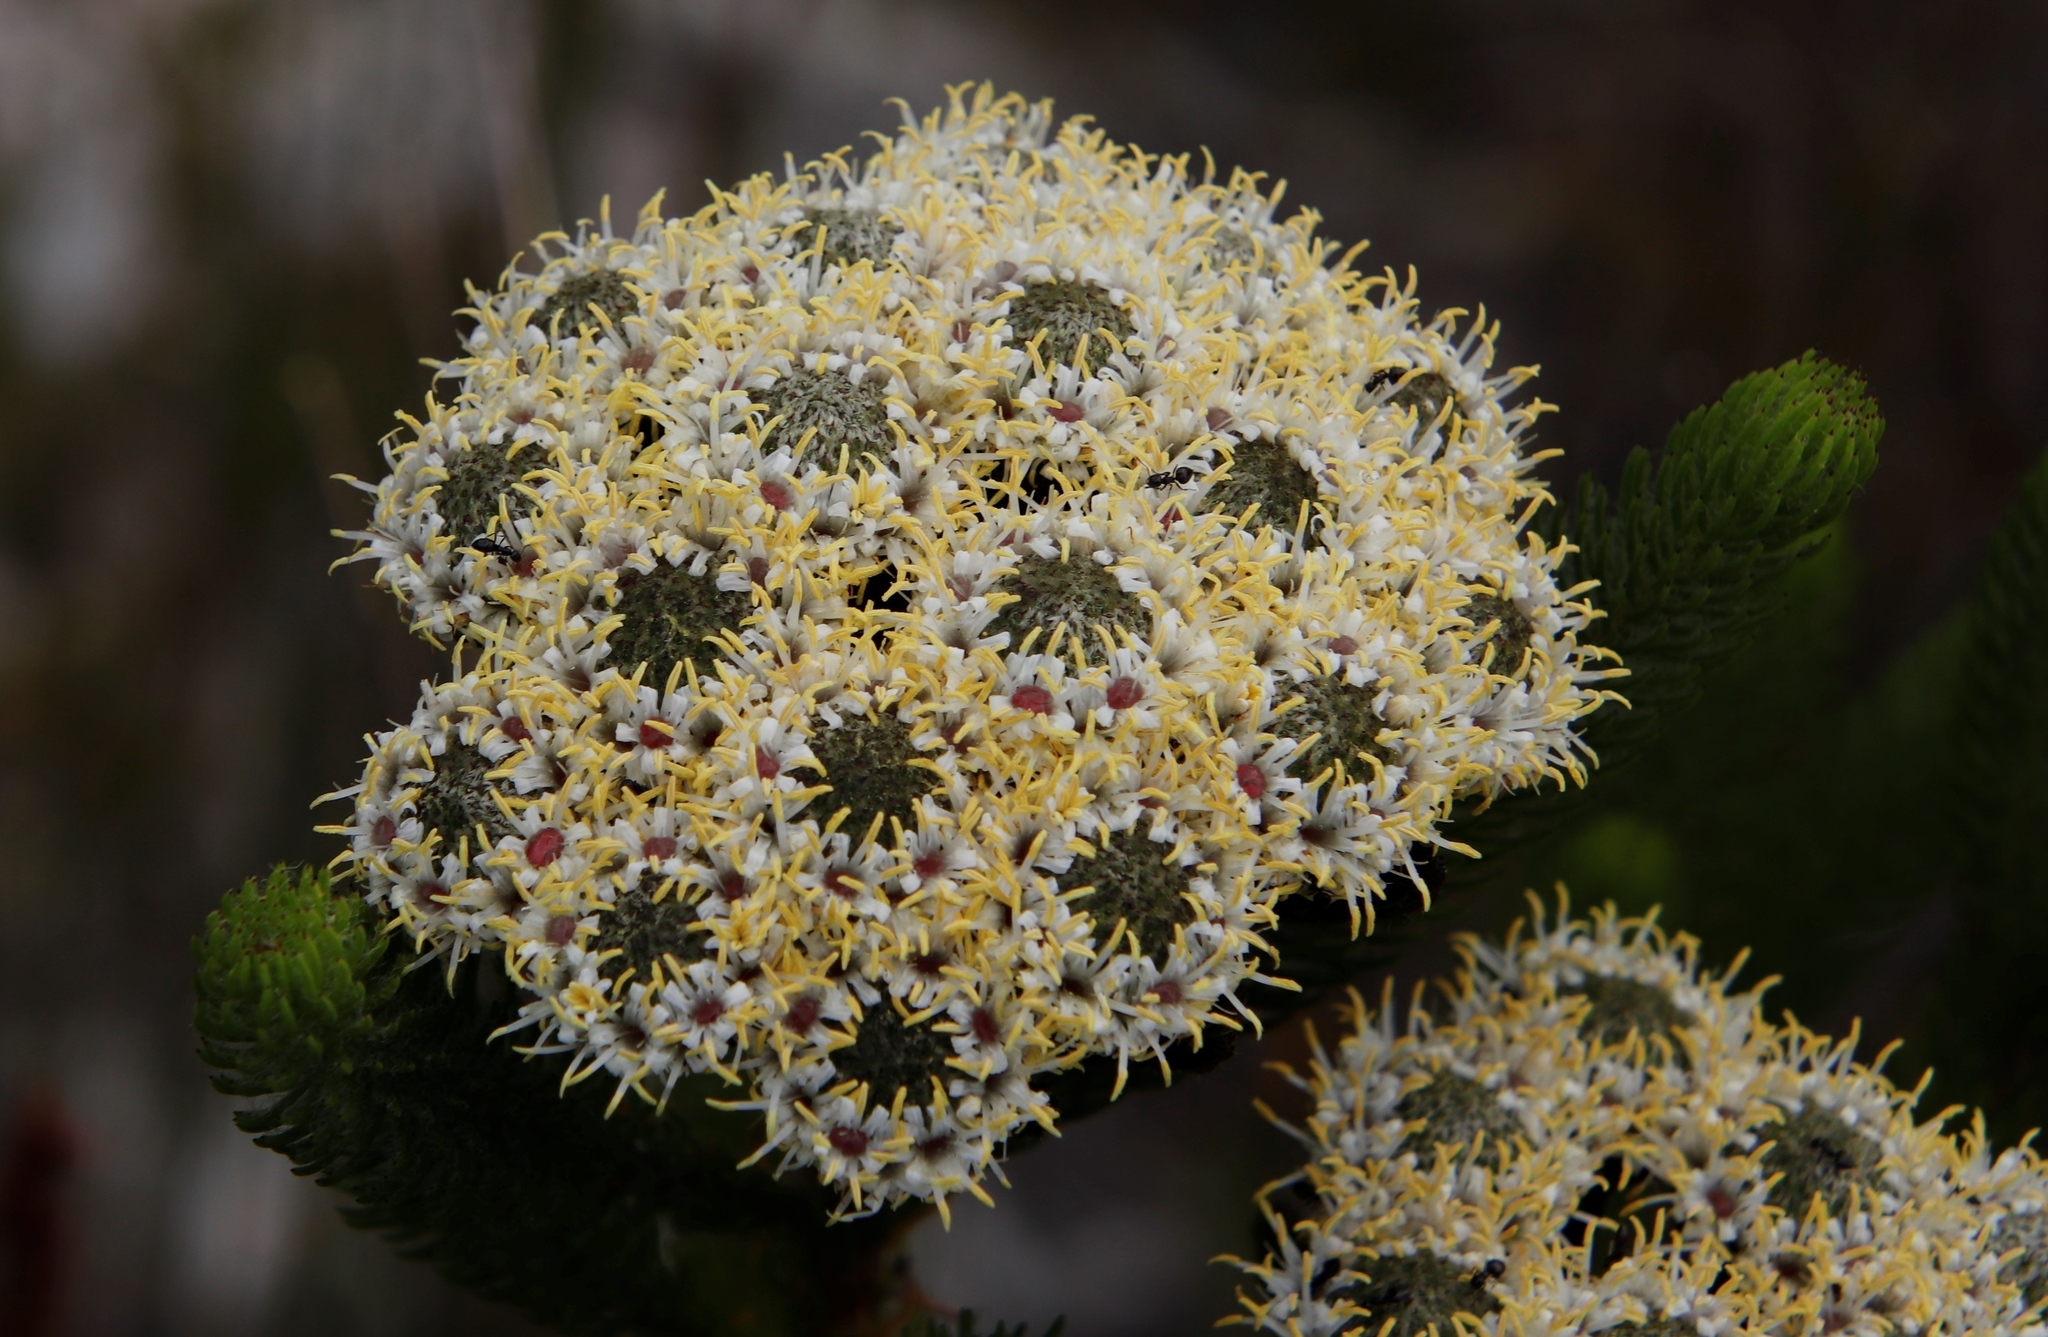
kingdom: Plantae
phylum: Tracheophyta
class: Magnoliopsida
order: Bruniales
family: Bruniaceae
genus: Berzelia
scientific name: Berzelia albiflora
